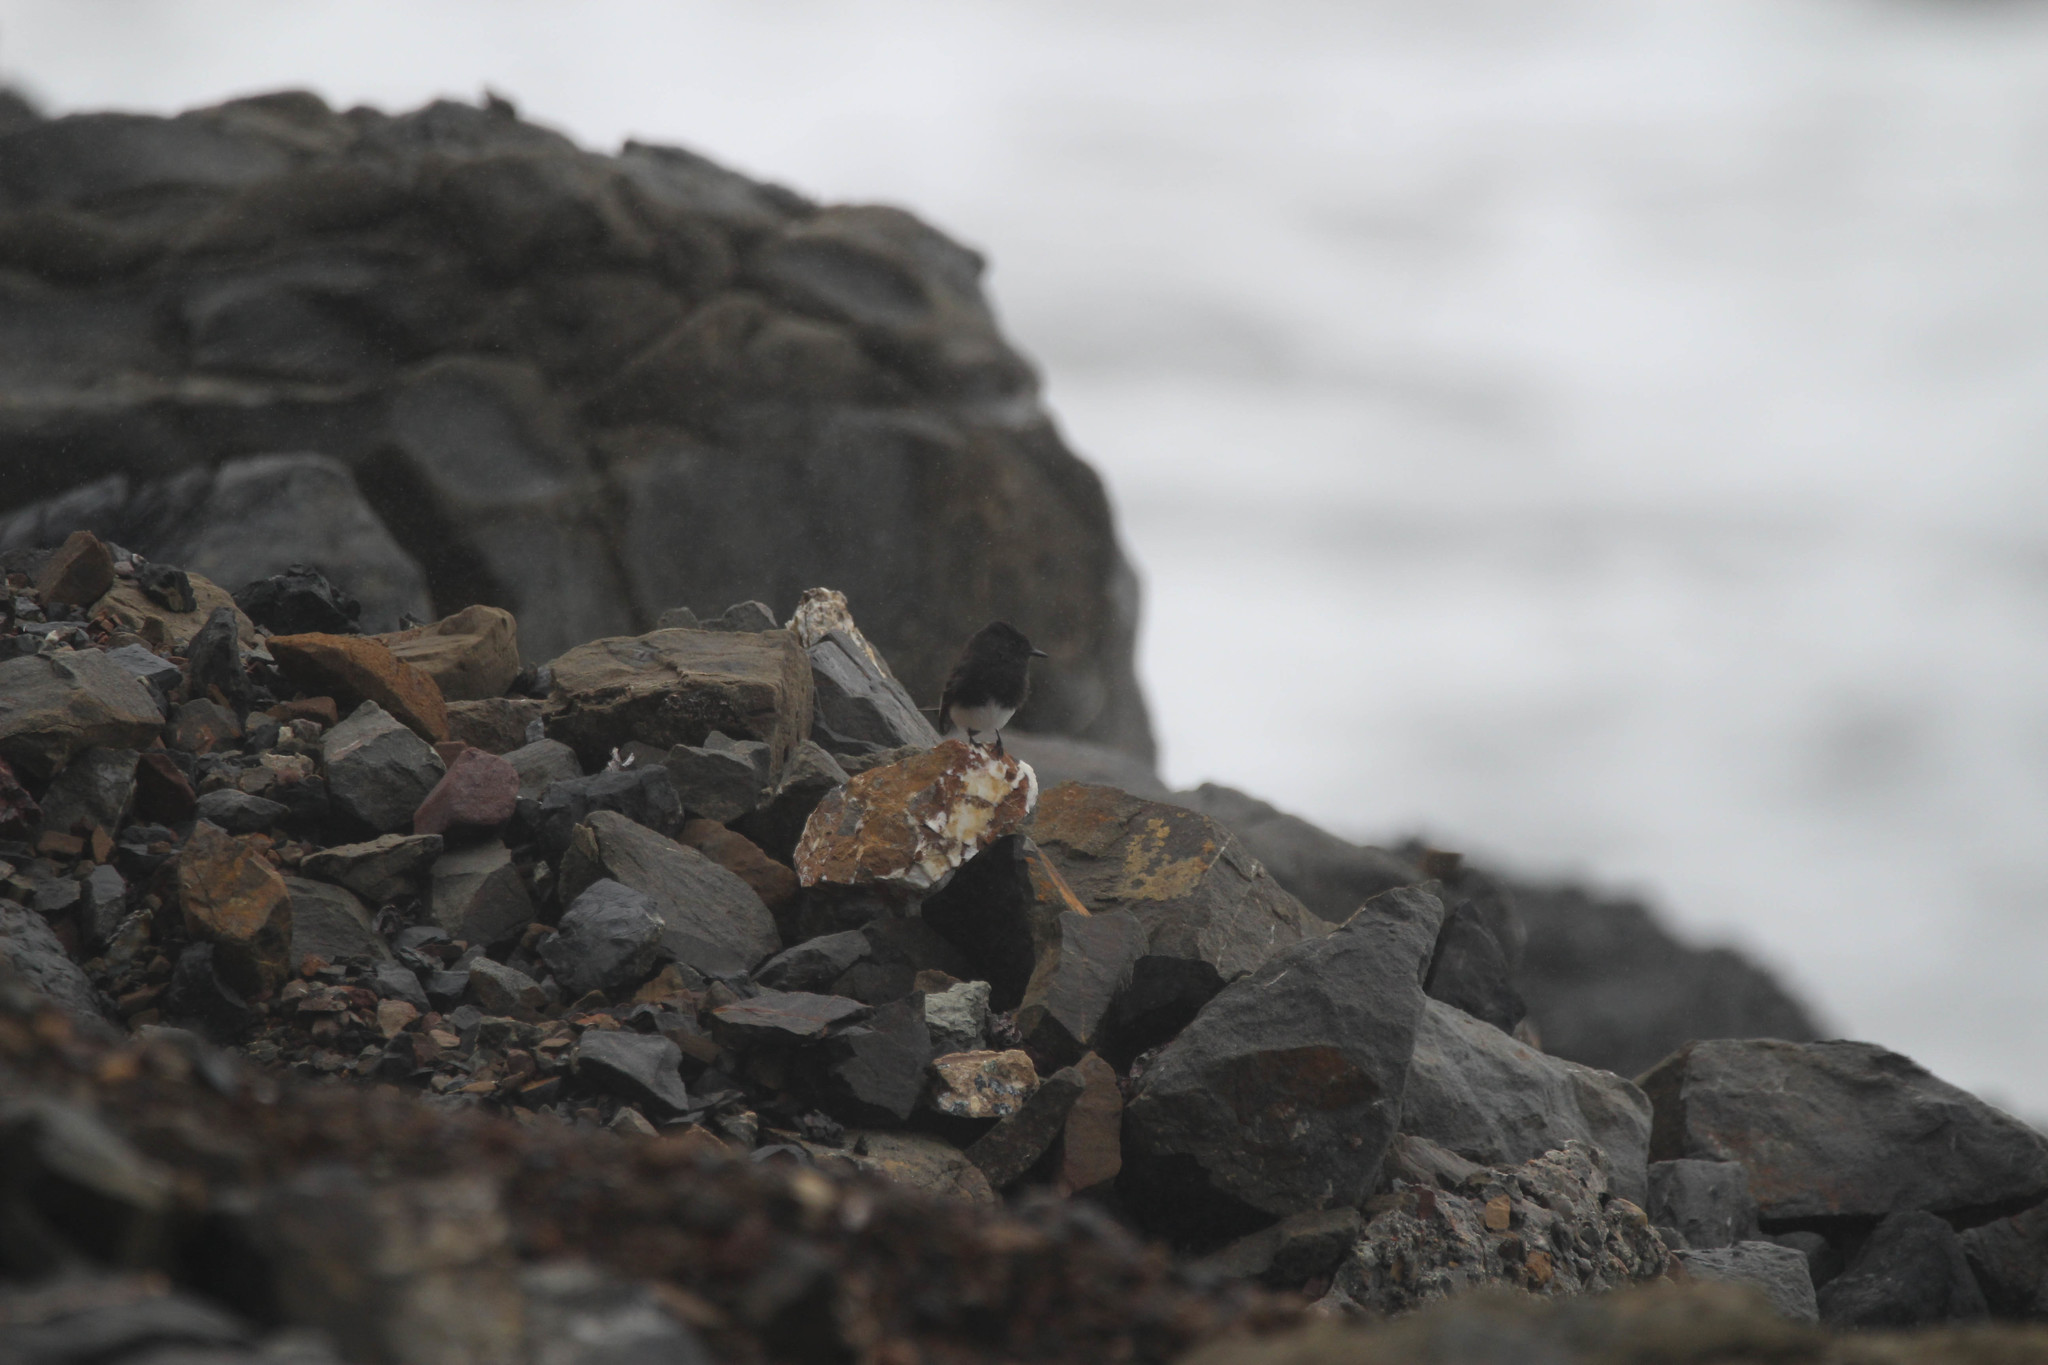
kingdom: Animalia
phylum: Chordata
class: Aves
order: Passeriformes
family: Tyrannidae
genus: Sayornis
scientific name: Sayornis nigricans
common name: Black phoebe
